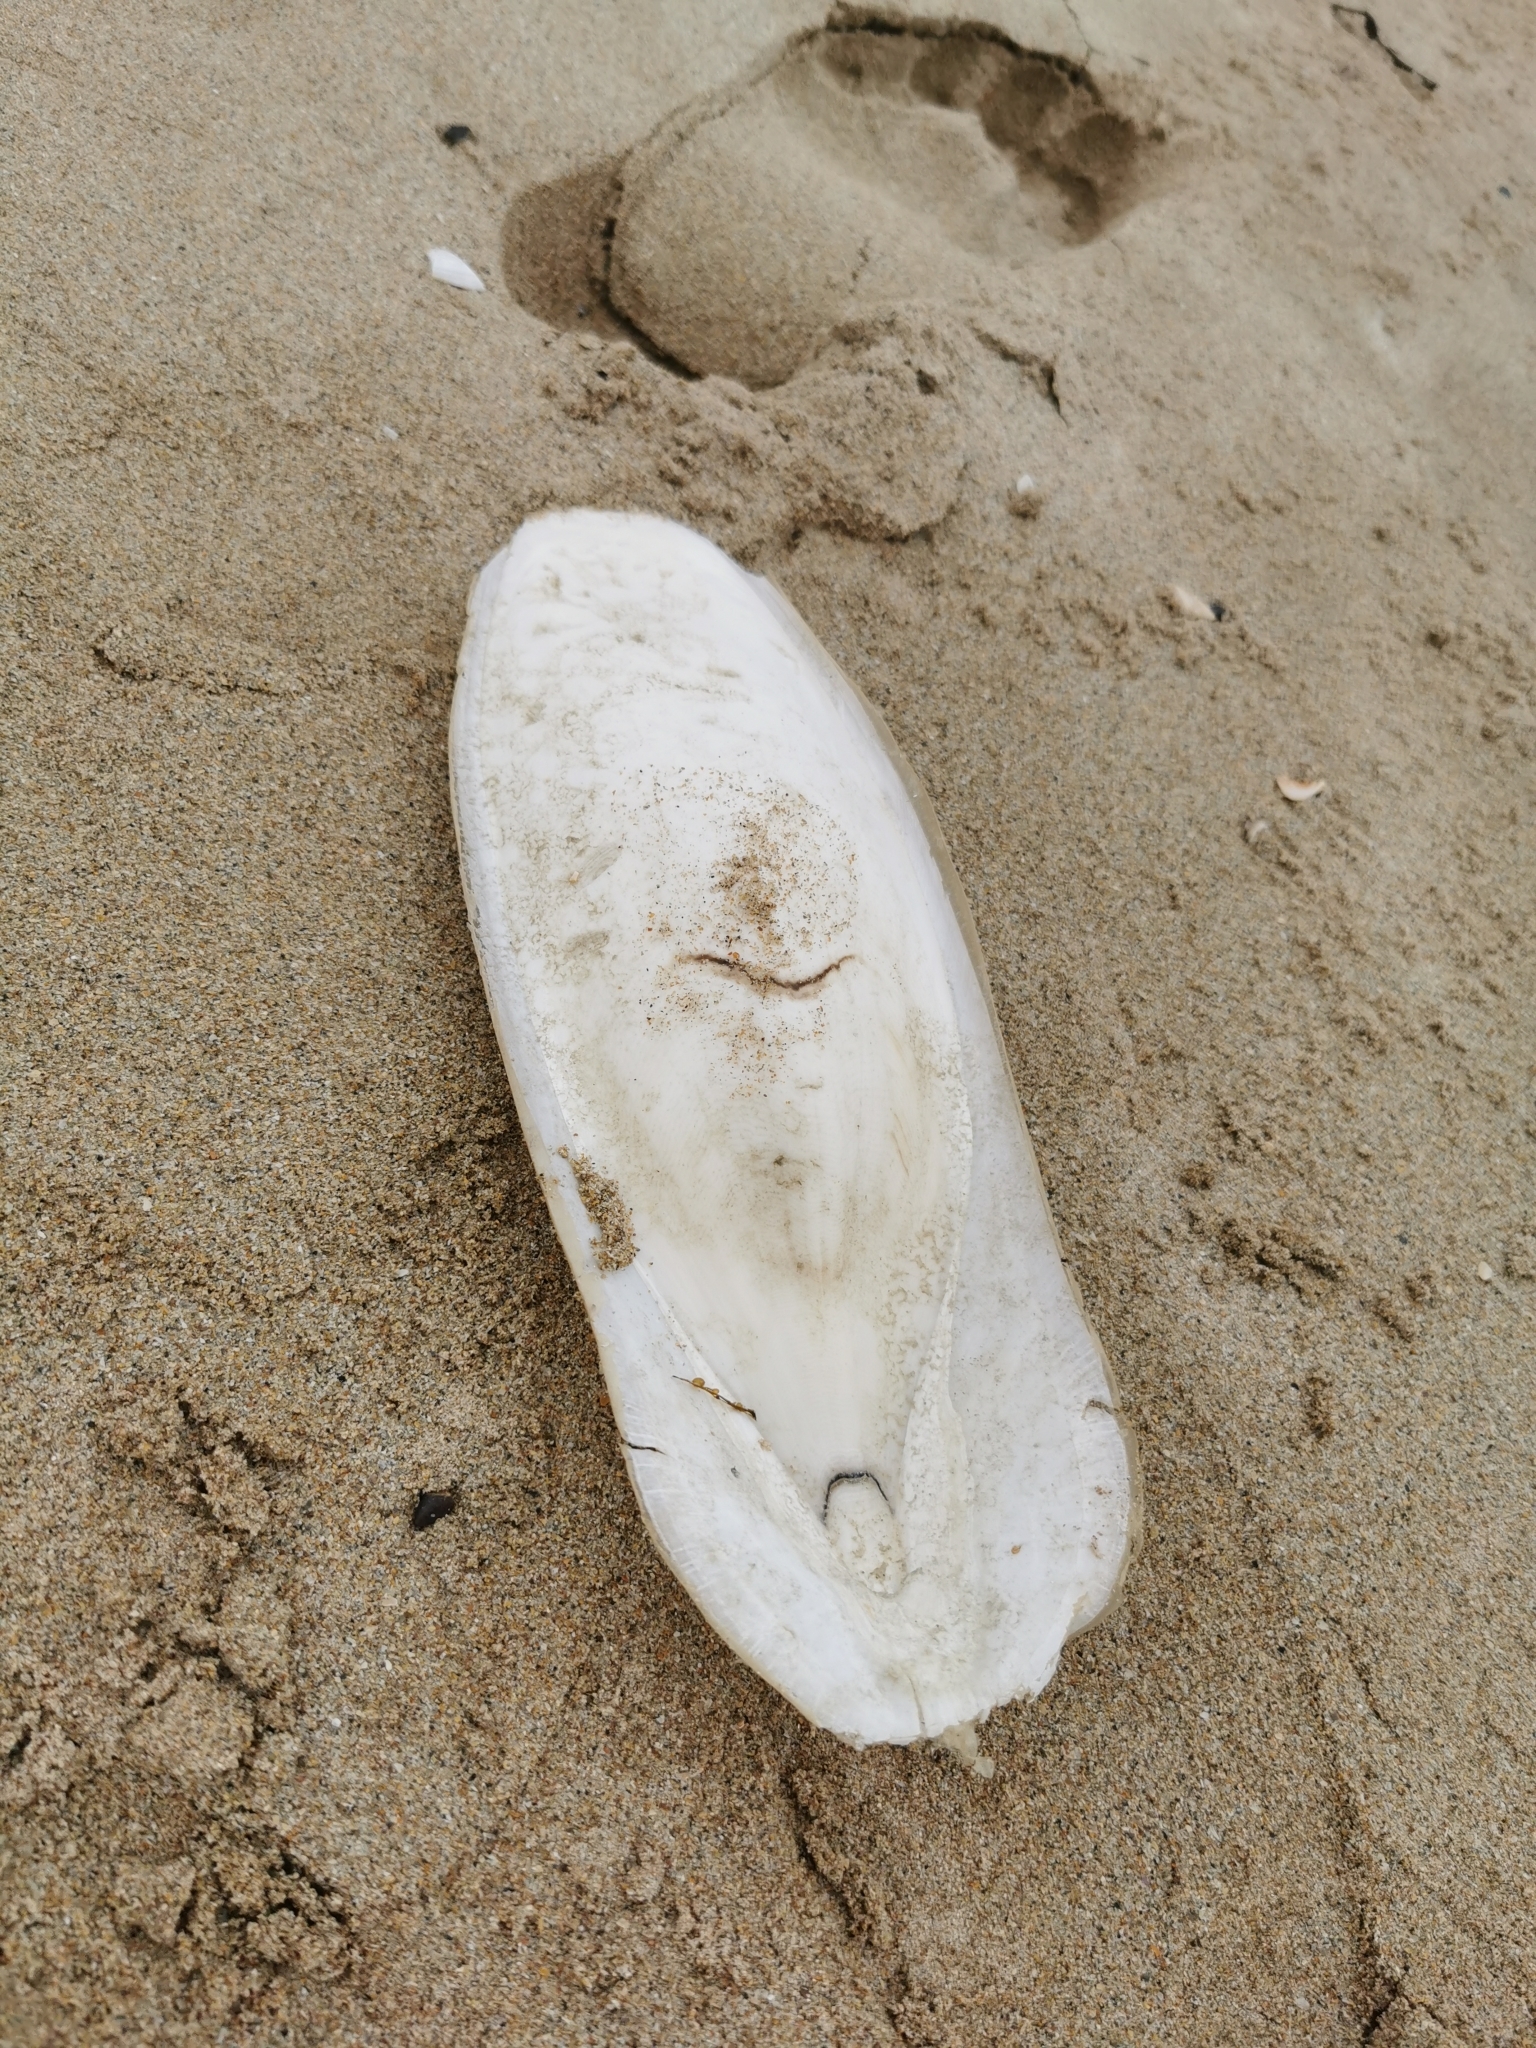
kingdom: Animalia
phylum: Mollusca
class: Cephalopoda
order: Sepiida
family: Sepiidae
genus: Sepia
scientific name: Sepia officinalis
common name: Common cuttlefish
